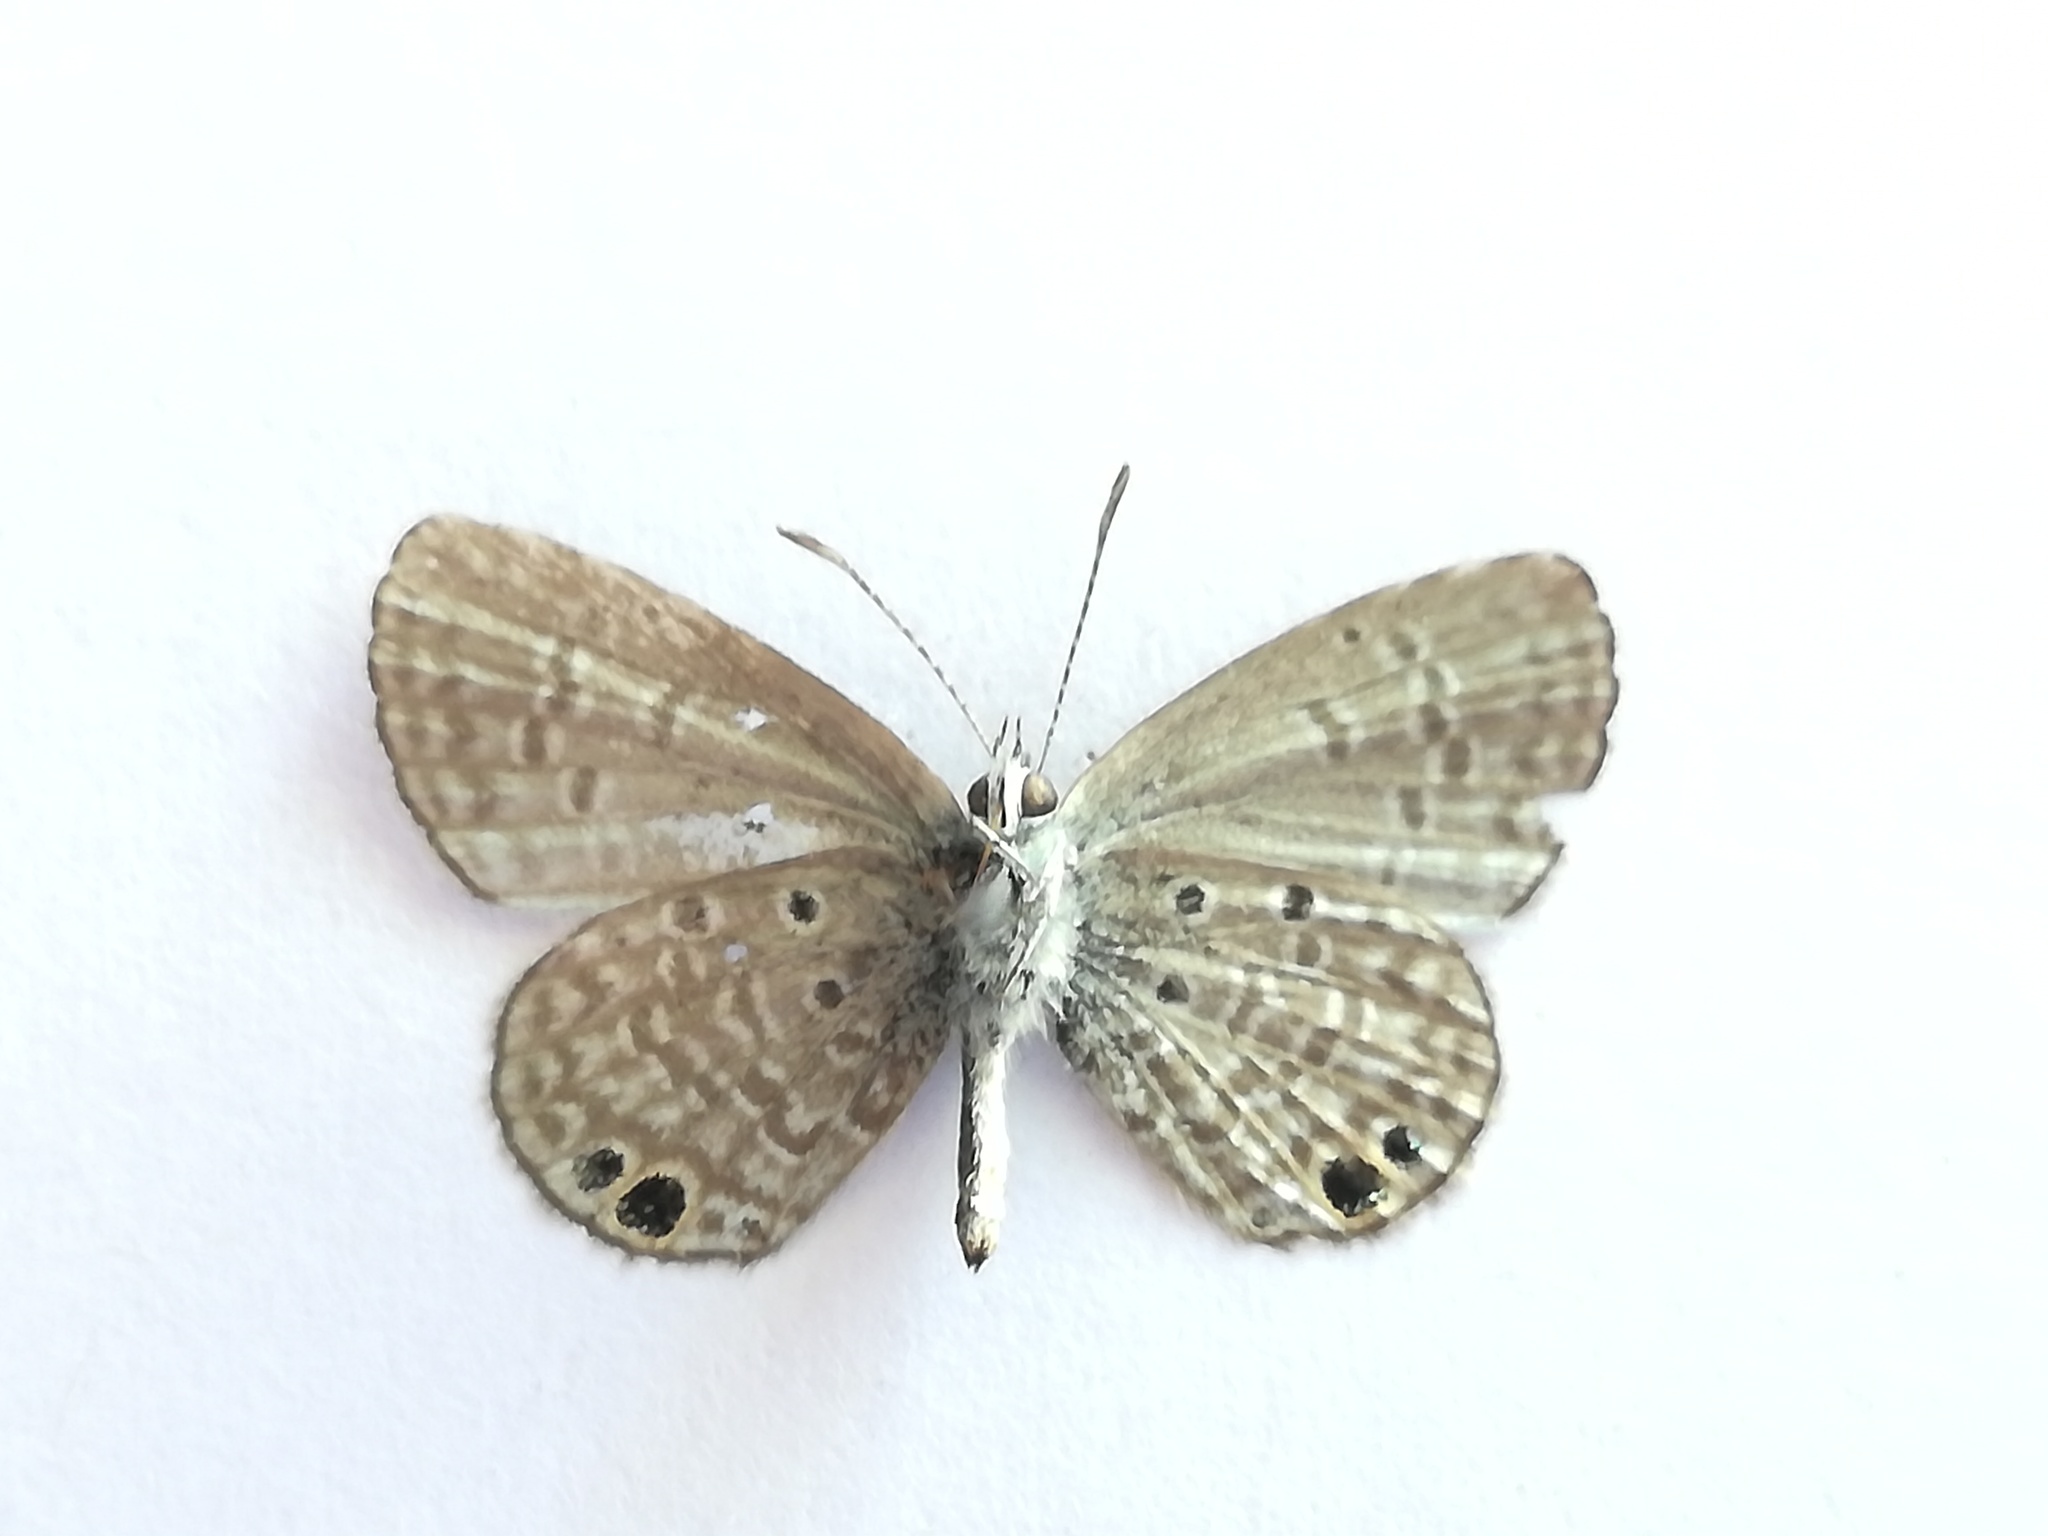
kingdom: Animalia
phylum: Arthropoda
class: Insecta
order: Lepidoptera
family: Lycaenidae
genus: Leptotes
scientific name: Leptotes theonus
